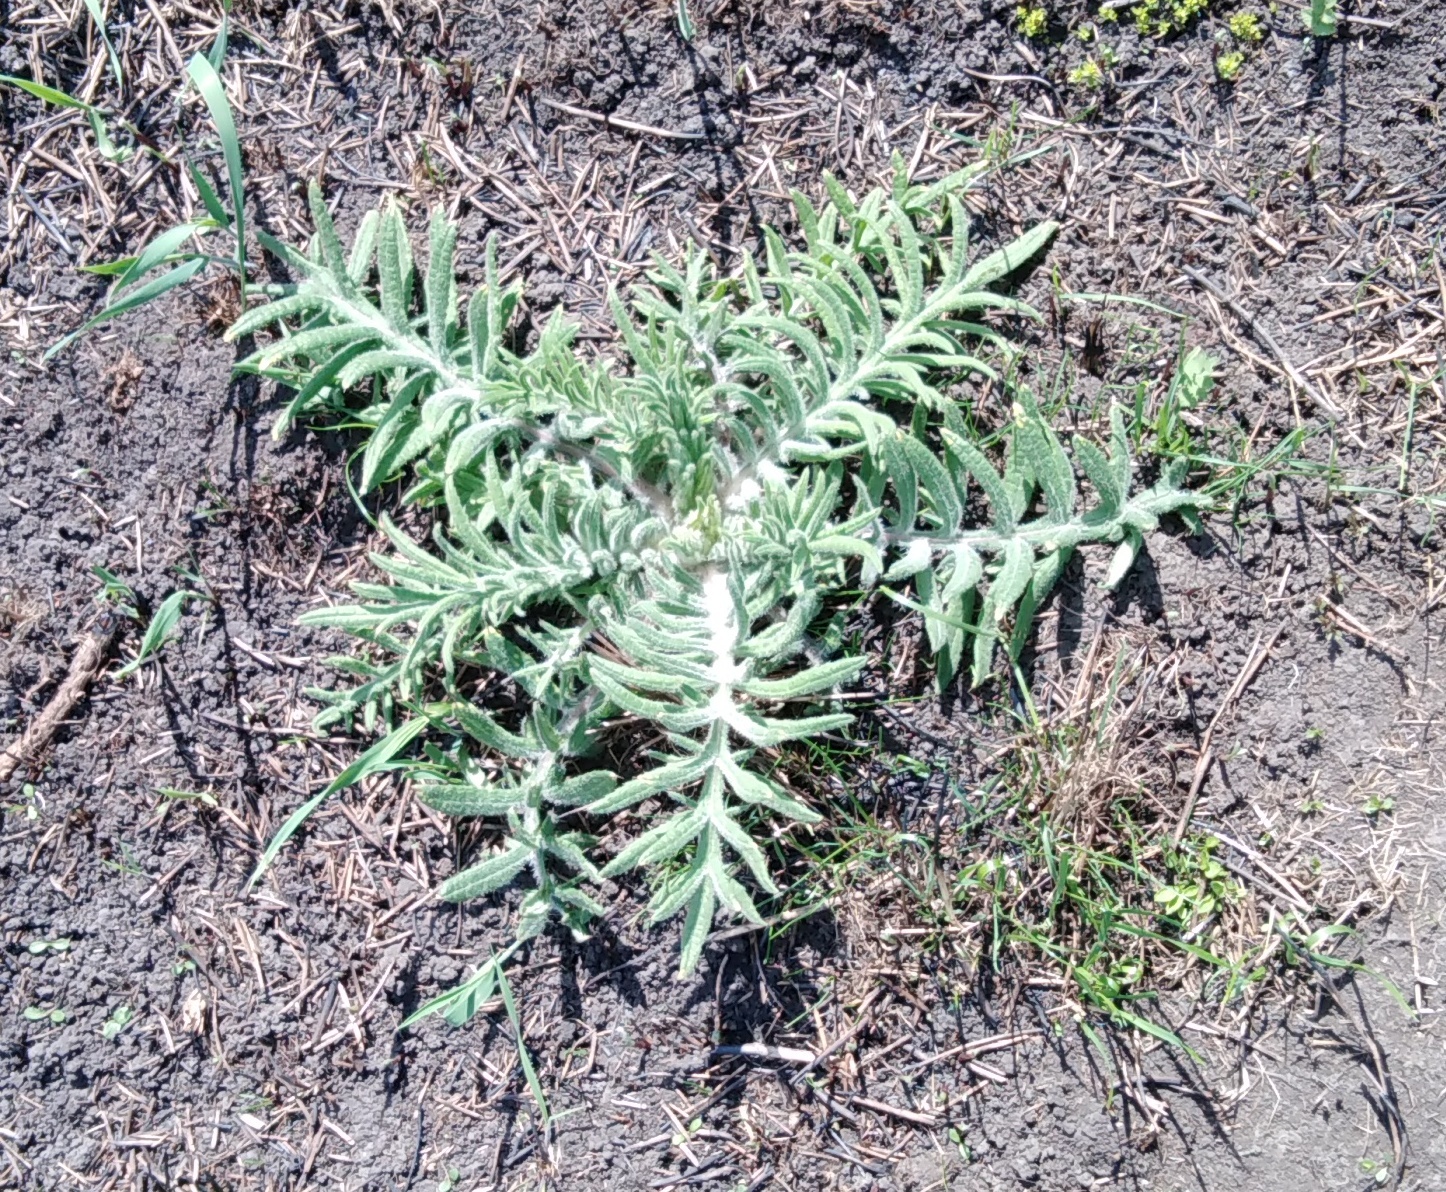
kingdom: Plantae
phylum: Tracheophyta
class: Magnoliopsida
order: Asterales
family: Asteraceae
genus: Lophiolepis
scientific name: Lophiolepis decussata
